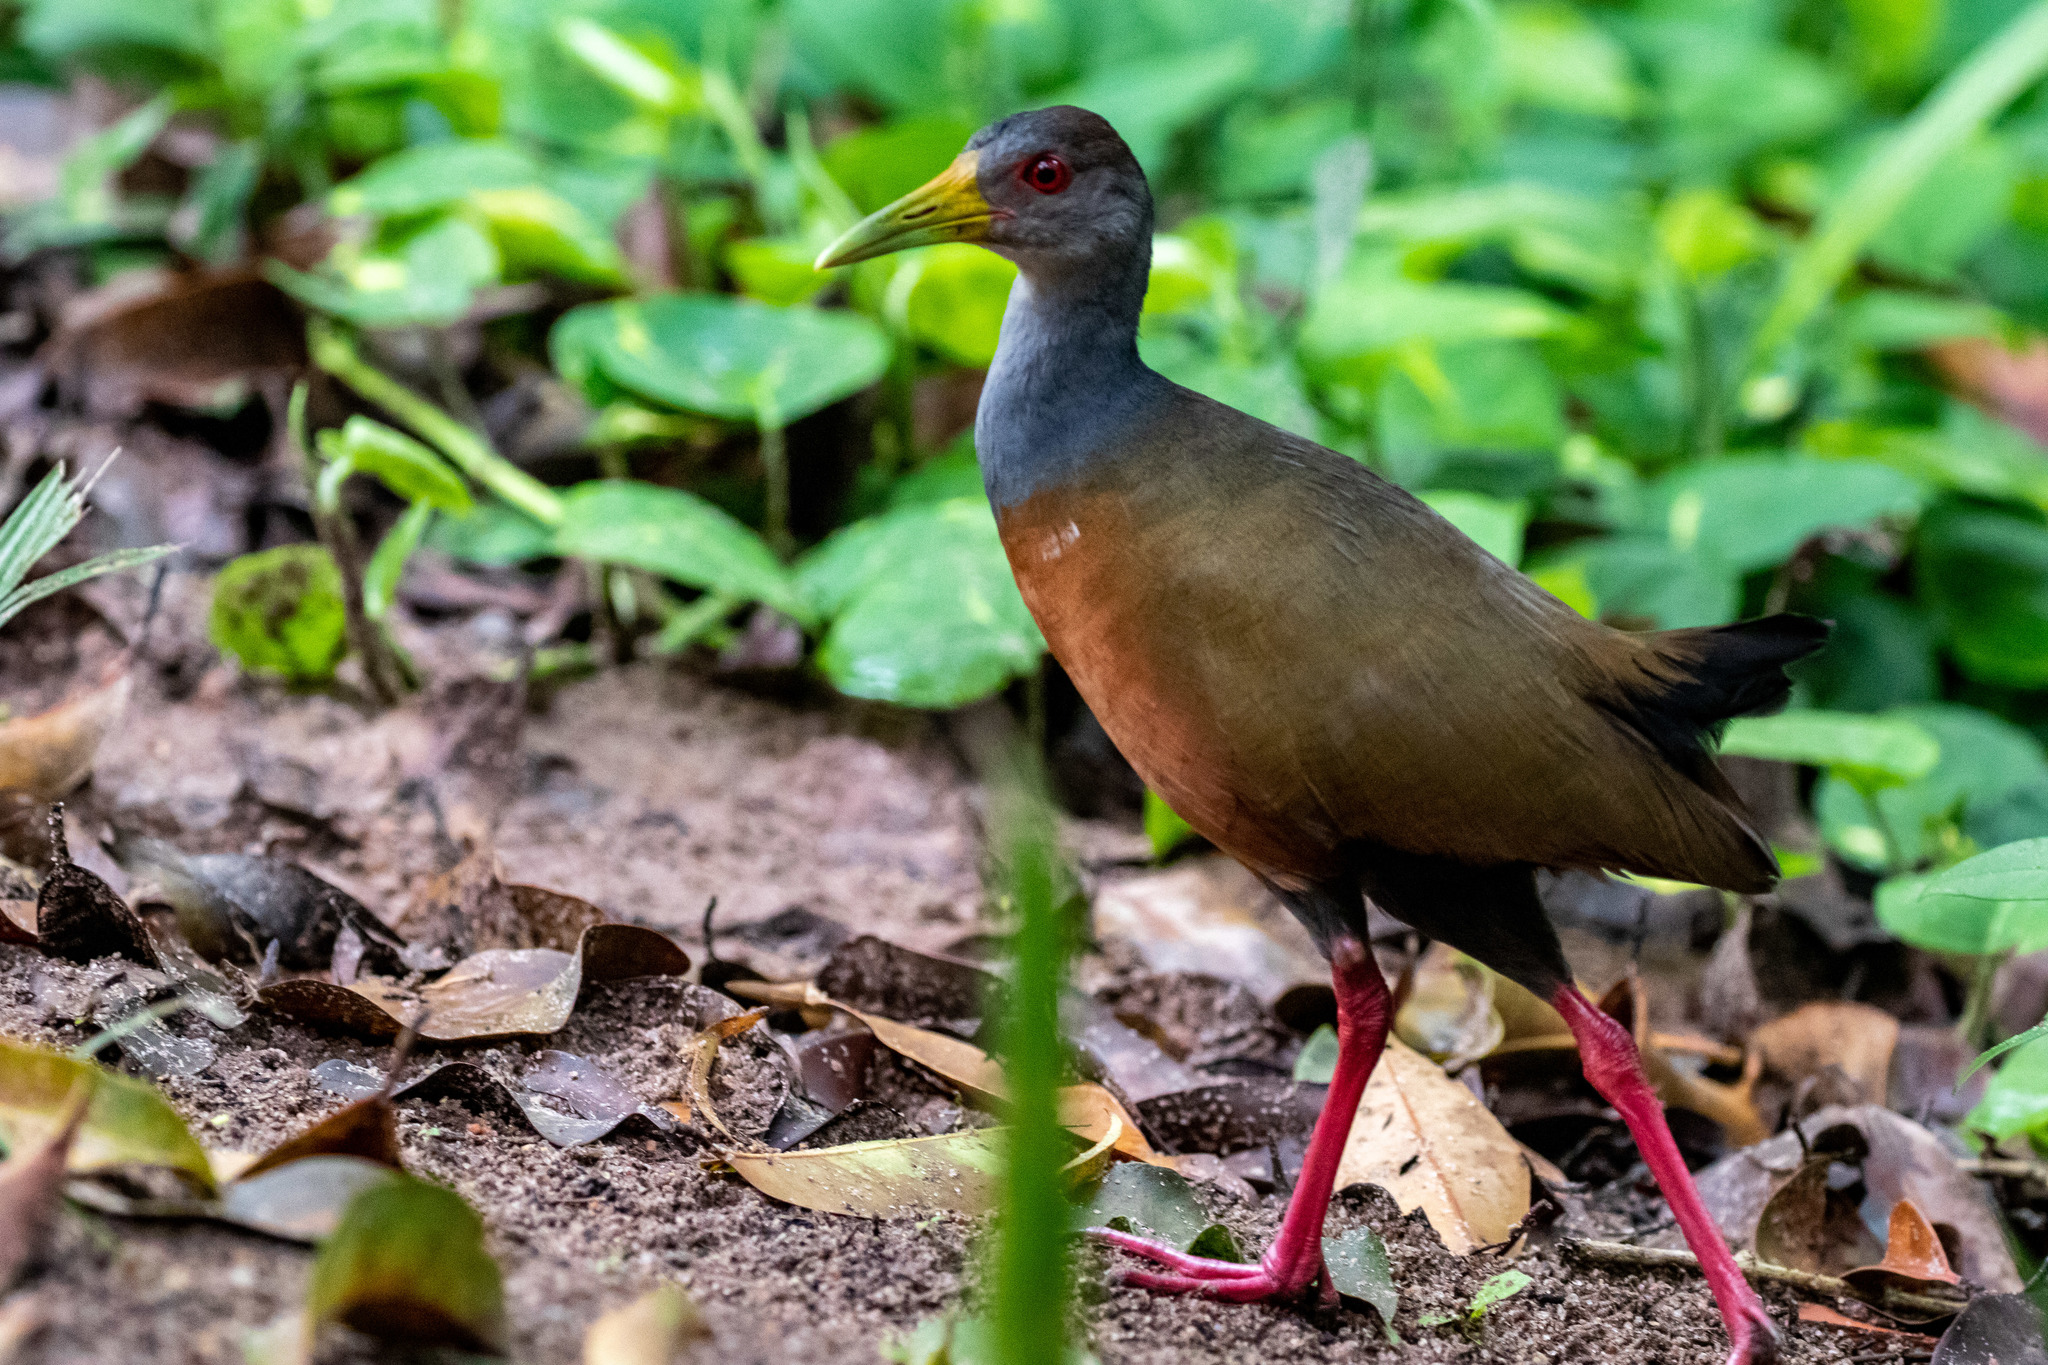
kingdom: Animalia
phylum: Chordata
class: Aves
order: Gruiformes
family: Rallidae
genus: Aramides
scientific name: Aramides cajanea
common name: Gray-necked wood-rail
